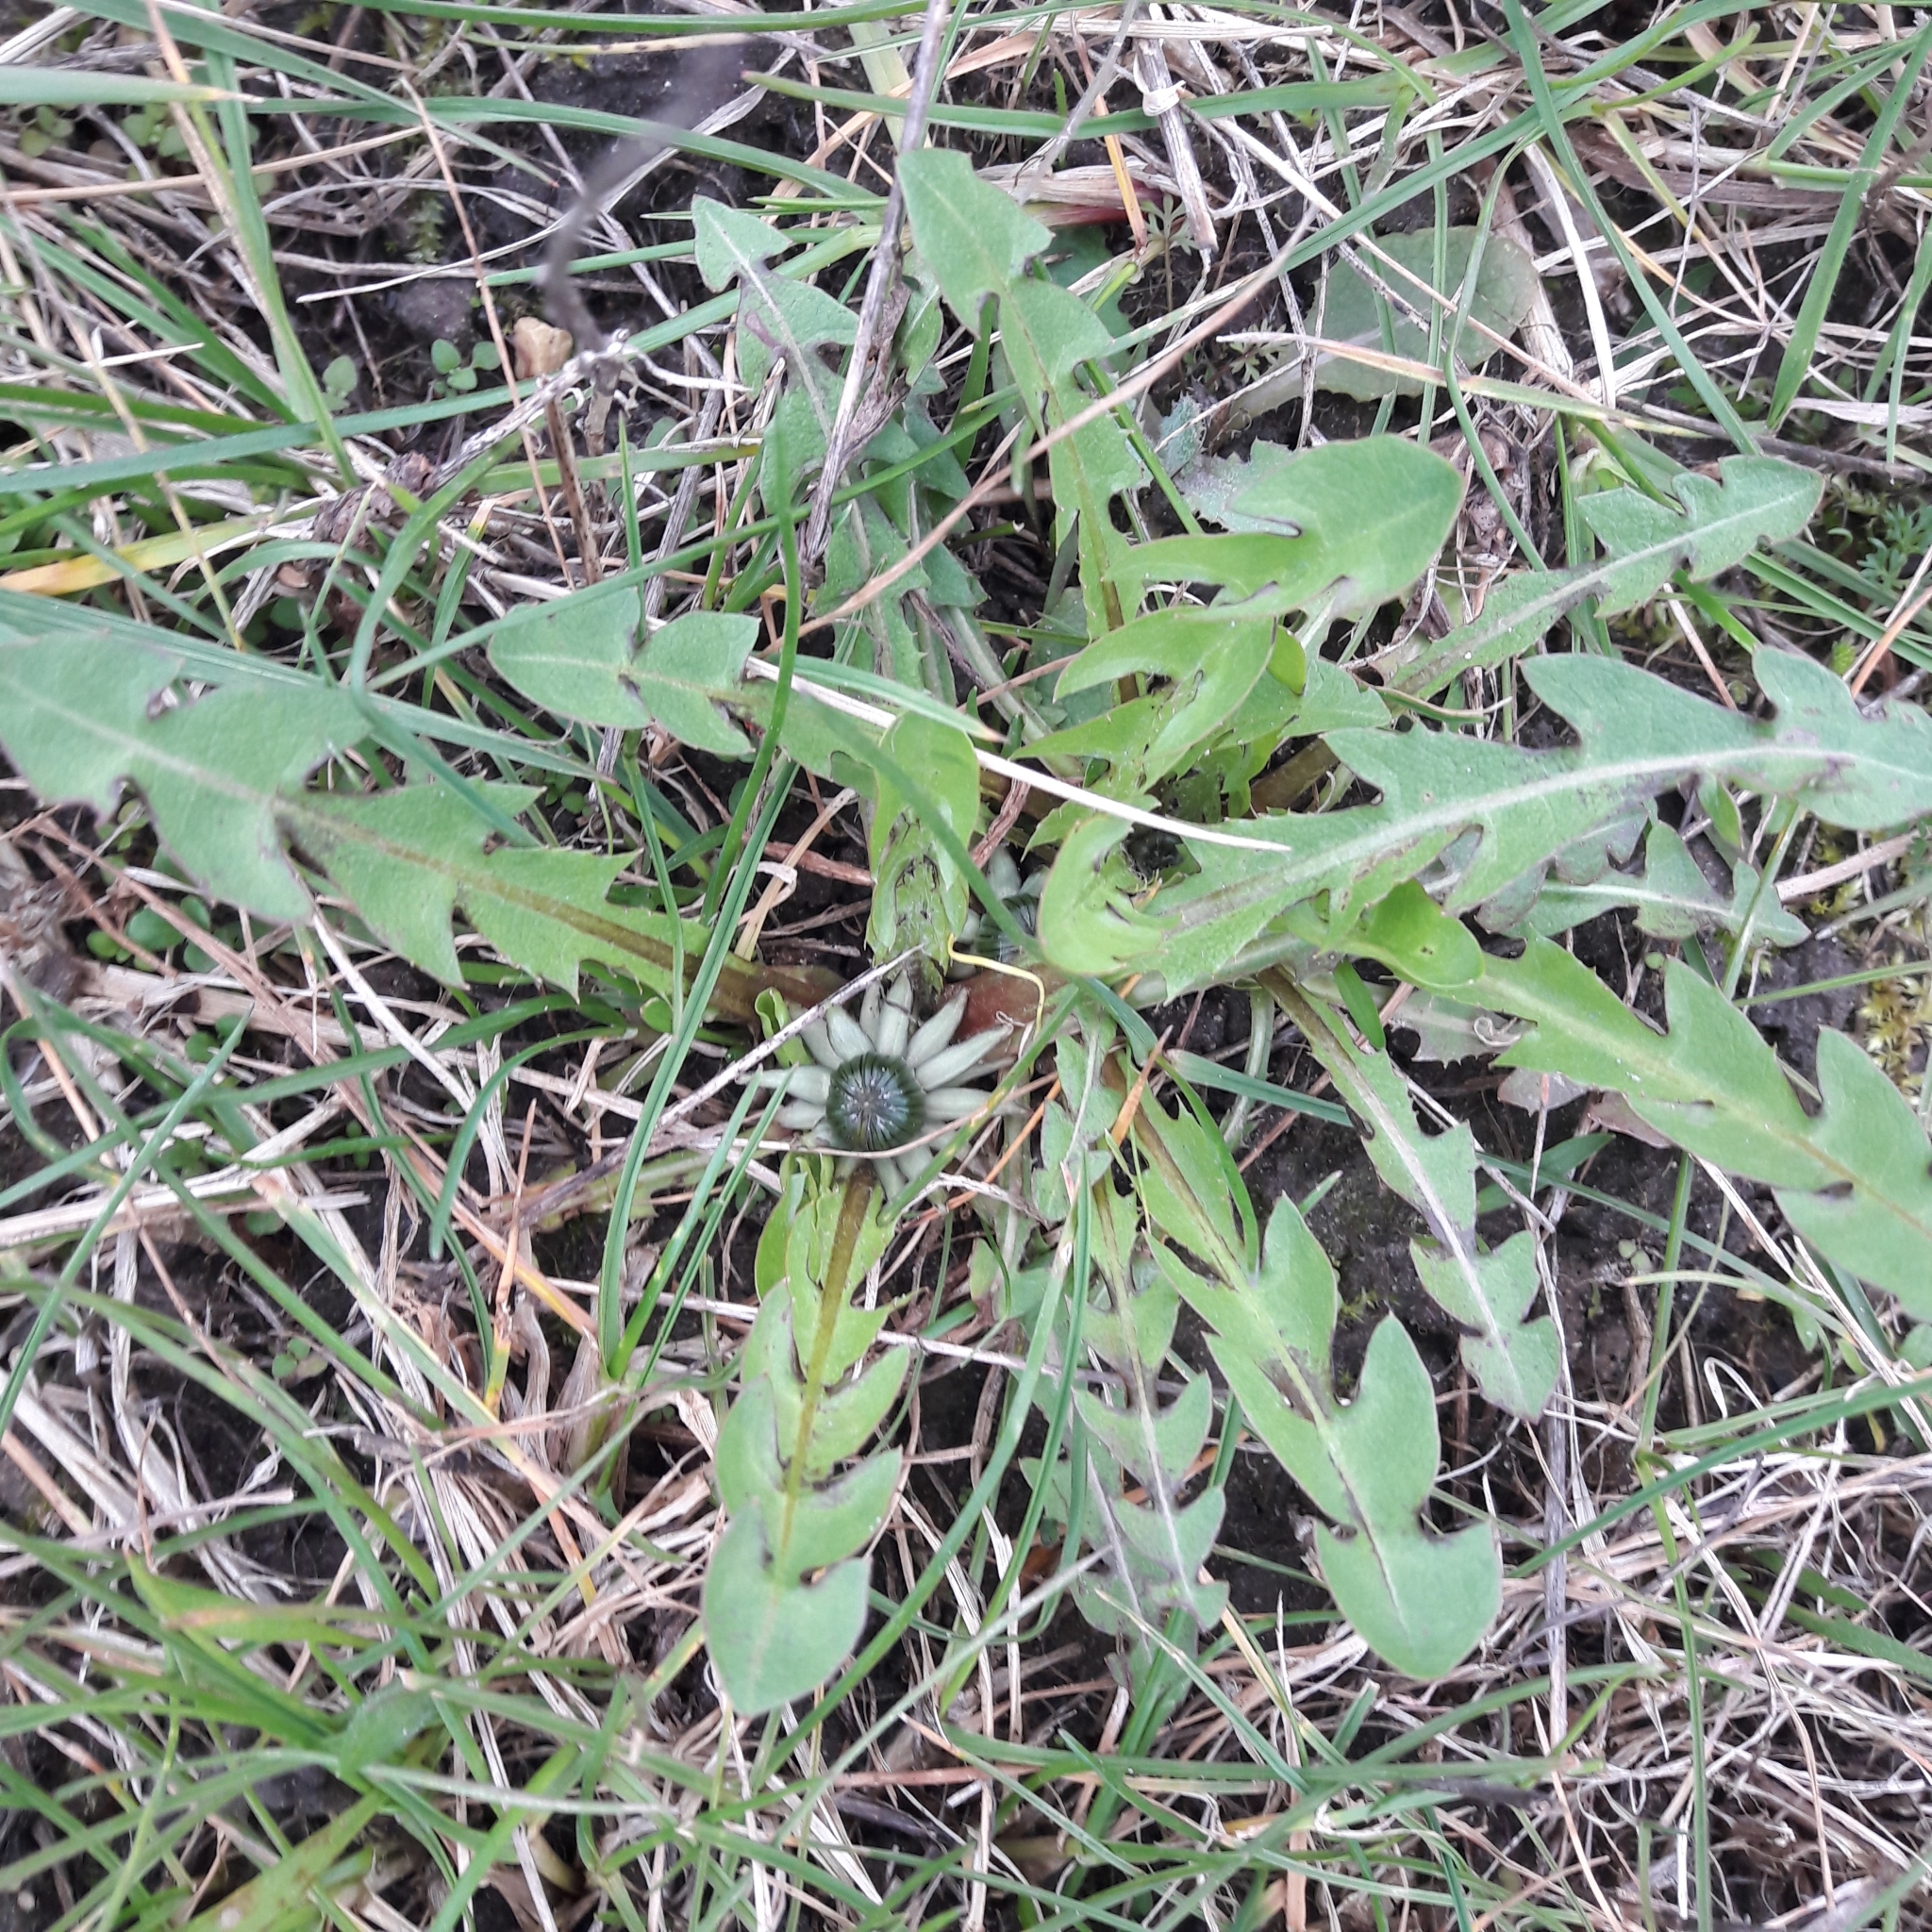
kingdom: Plantae
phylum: Tracheophyta
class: Magnoliopsida
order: Asterales
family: Asteraceae
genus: Taraxacum
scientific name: Taraxacum officinale
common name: Common dandelion
